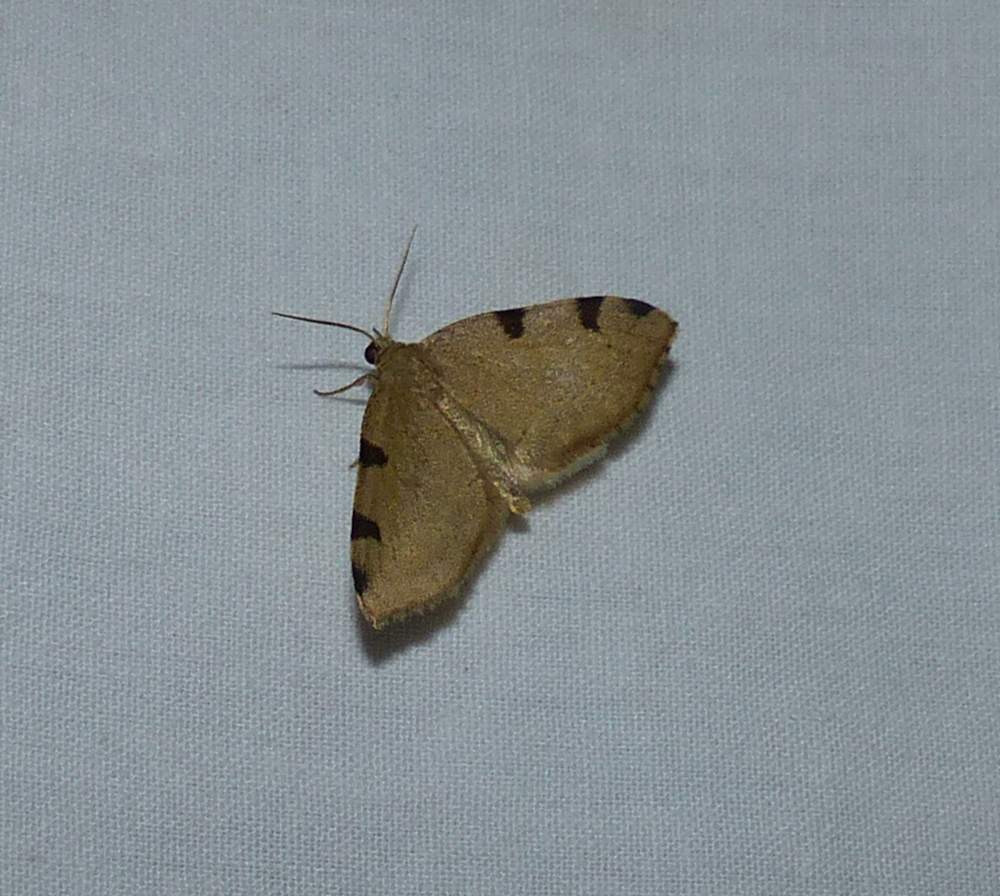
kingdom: Animalia
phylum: Arthropoda
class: Insecta
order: Lepidoptera
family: Geometridae
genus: Heterophleps
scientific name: Heterophleps triguttaria
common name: Three-spotted fillip
